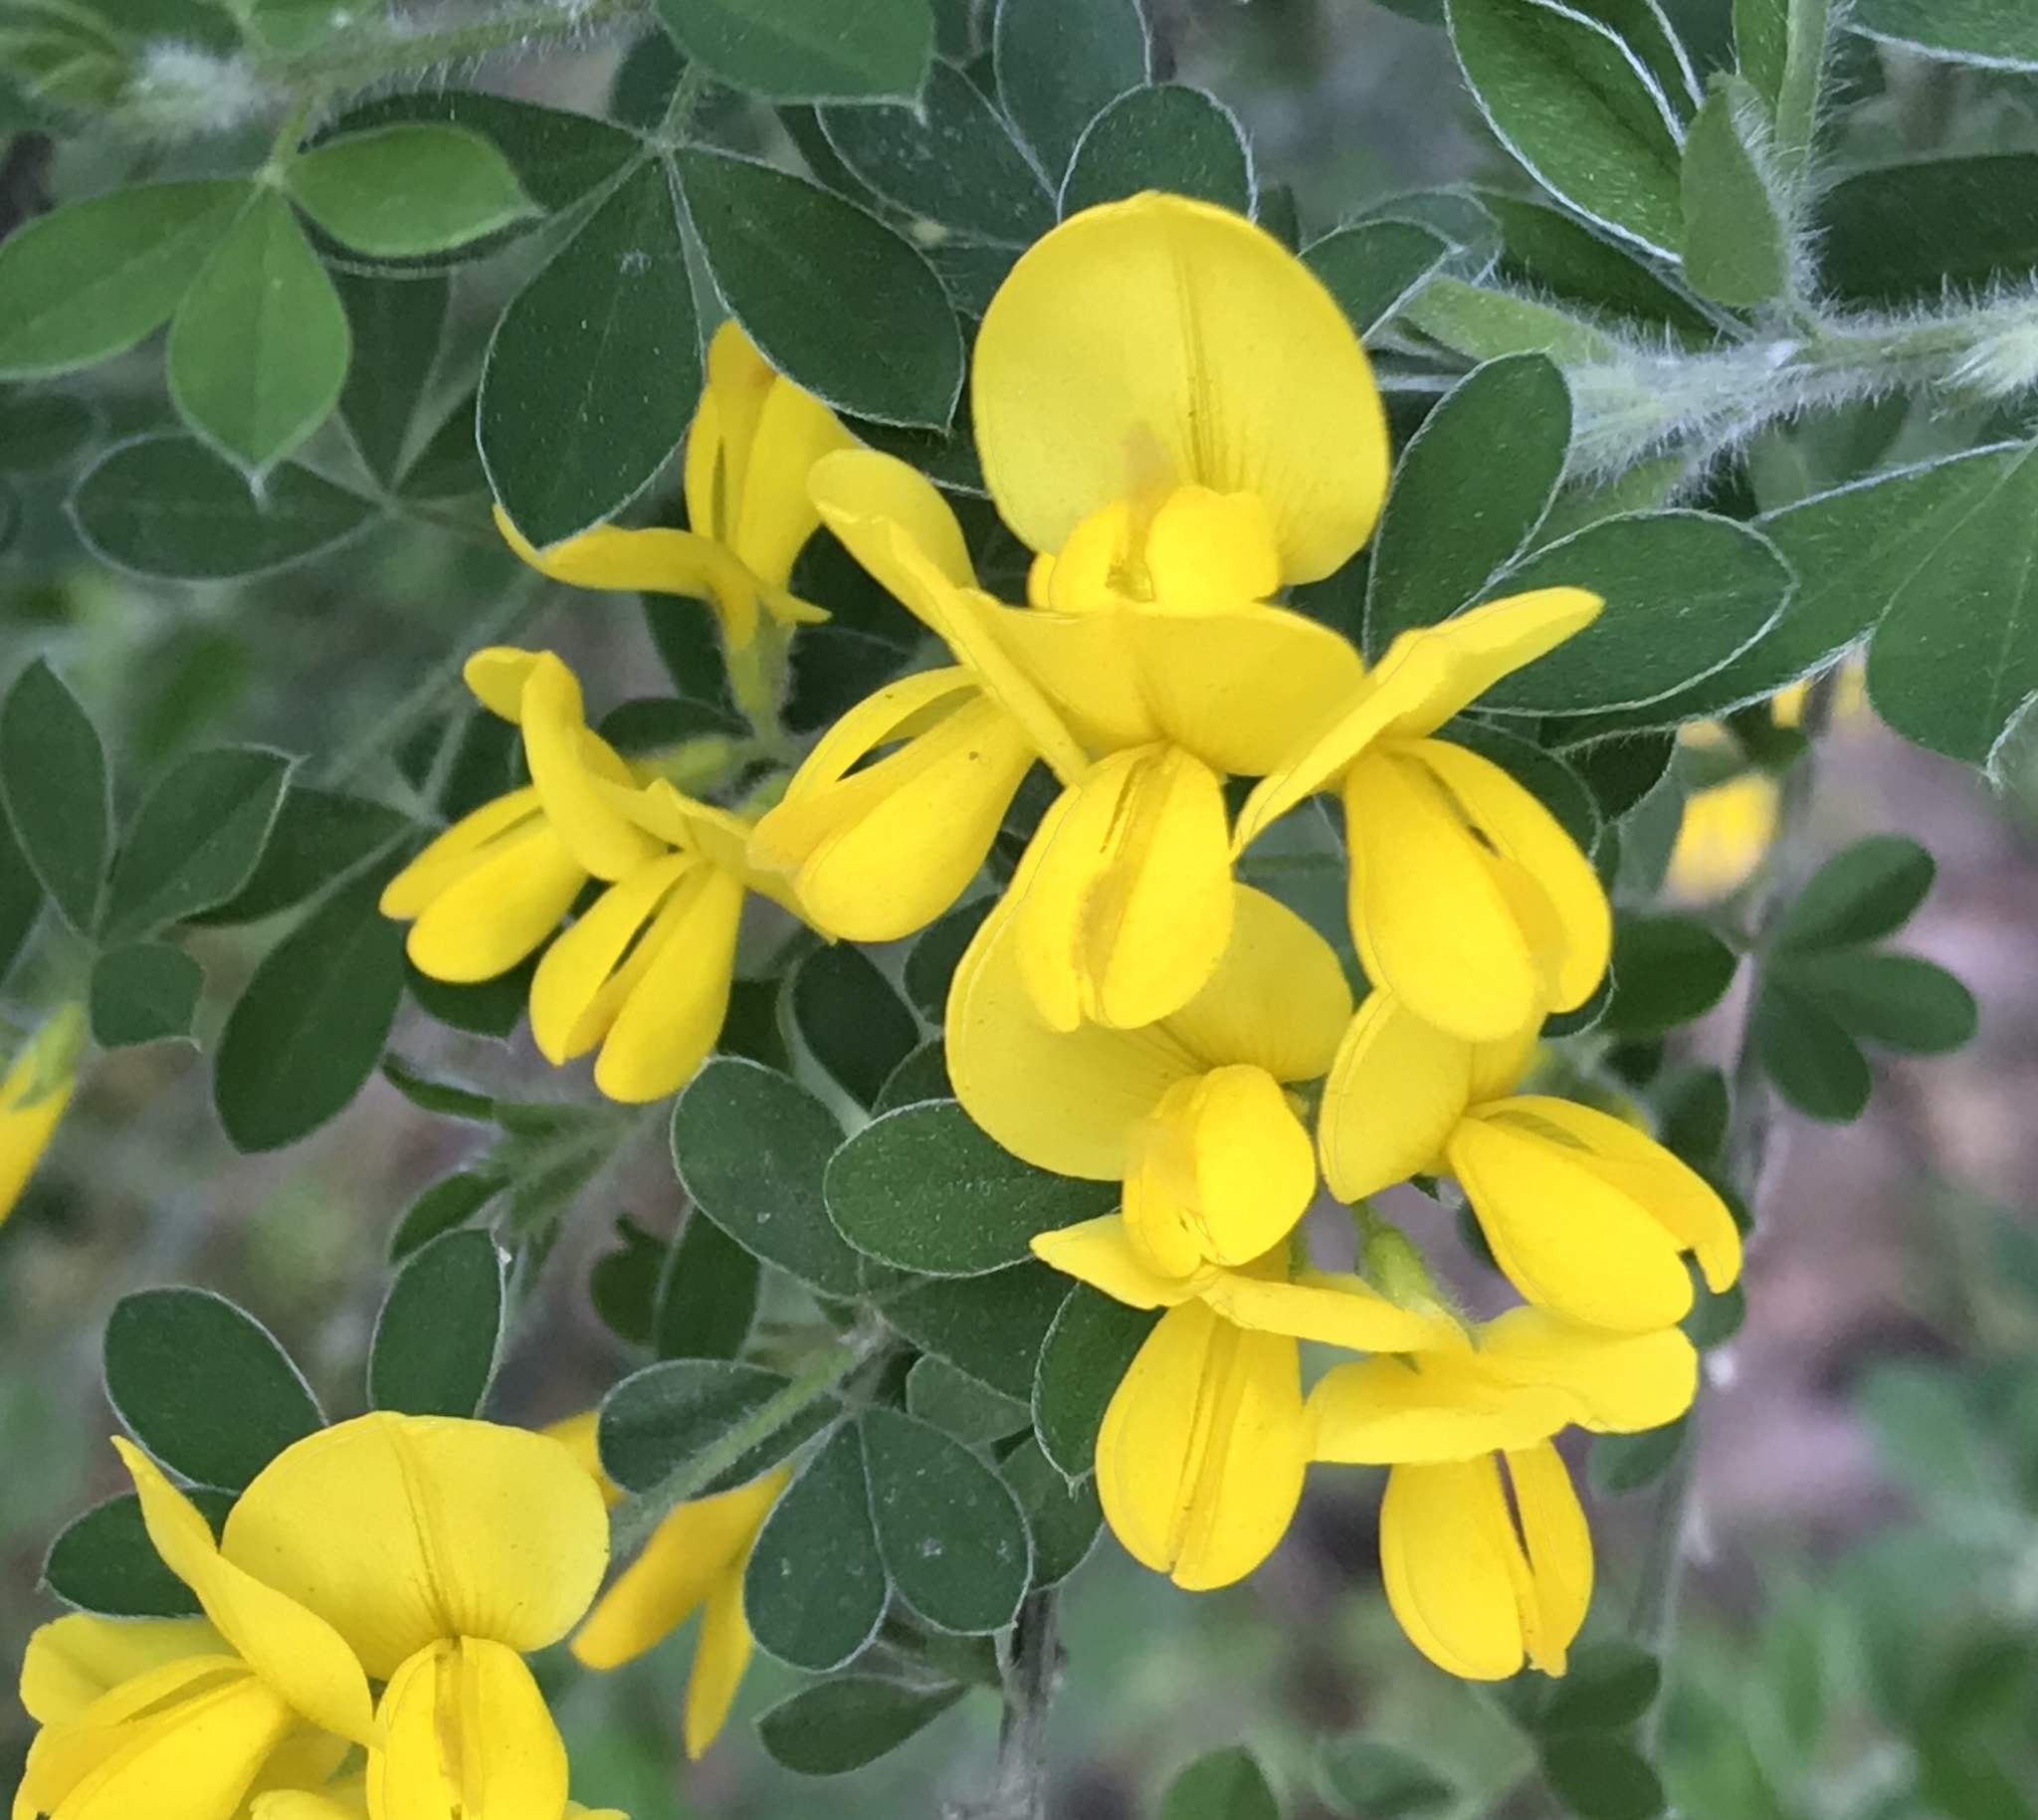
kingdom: Plantae
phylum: Tracheophyta
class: Magnoliopsida
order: Fabales
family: Fabaceae
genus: Genista
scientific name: Genista monspessulana
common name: Montpellier broom
